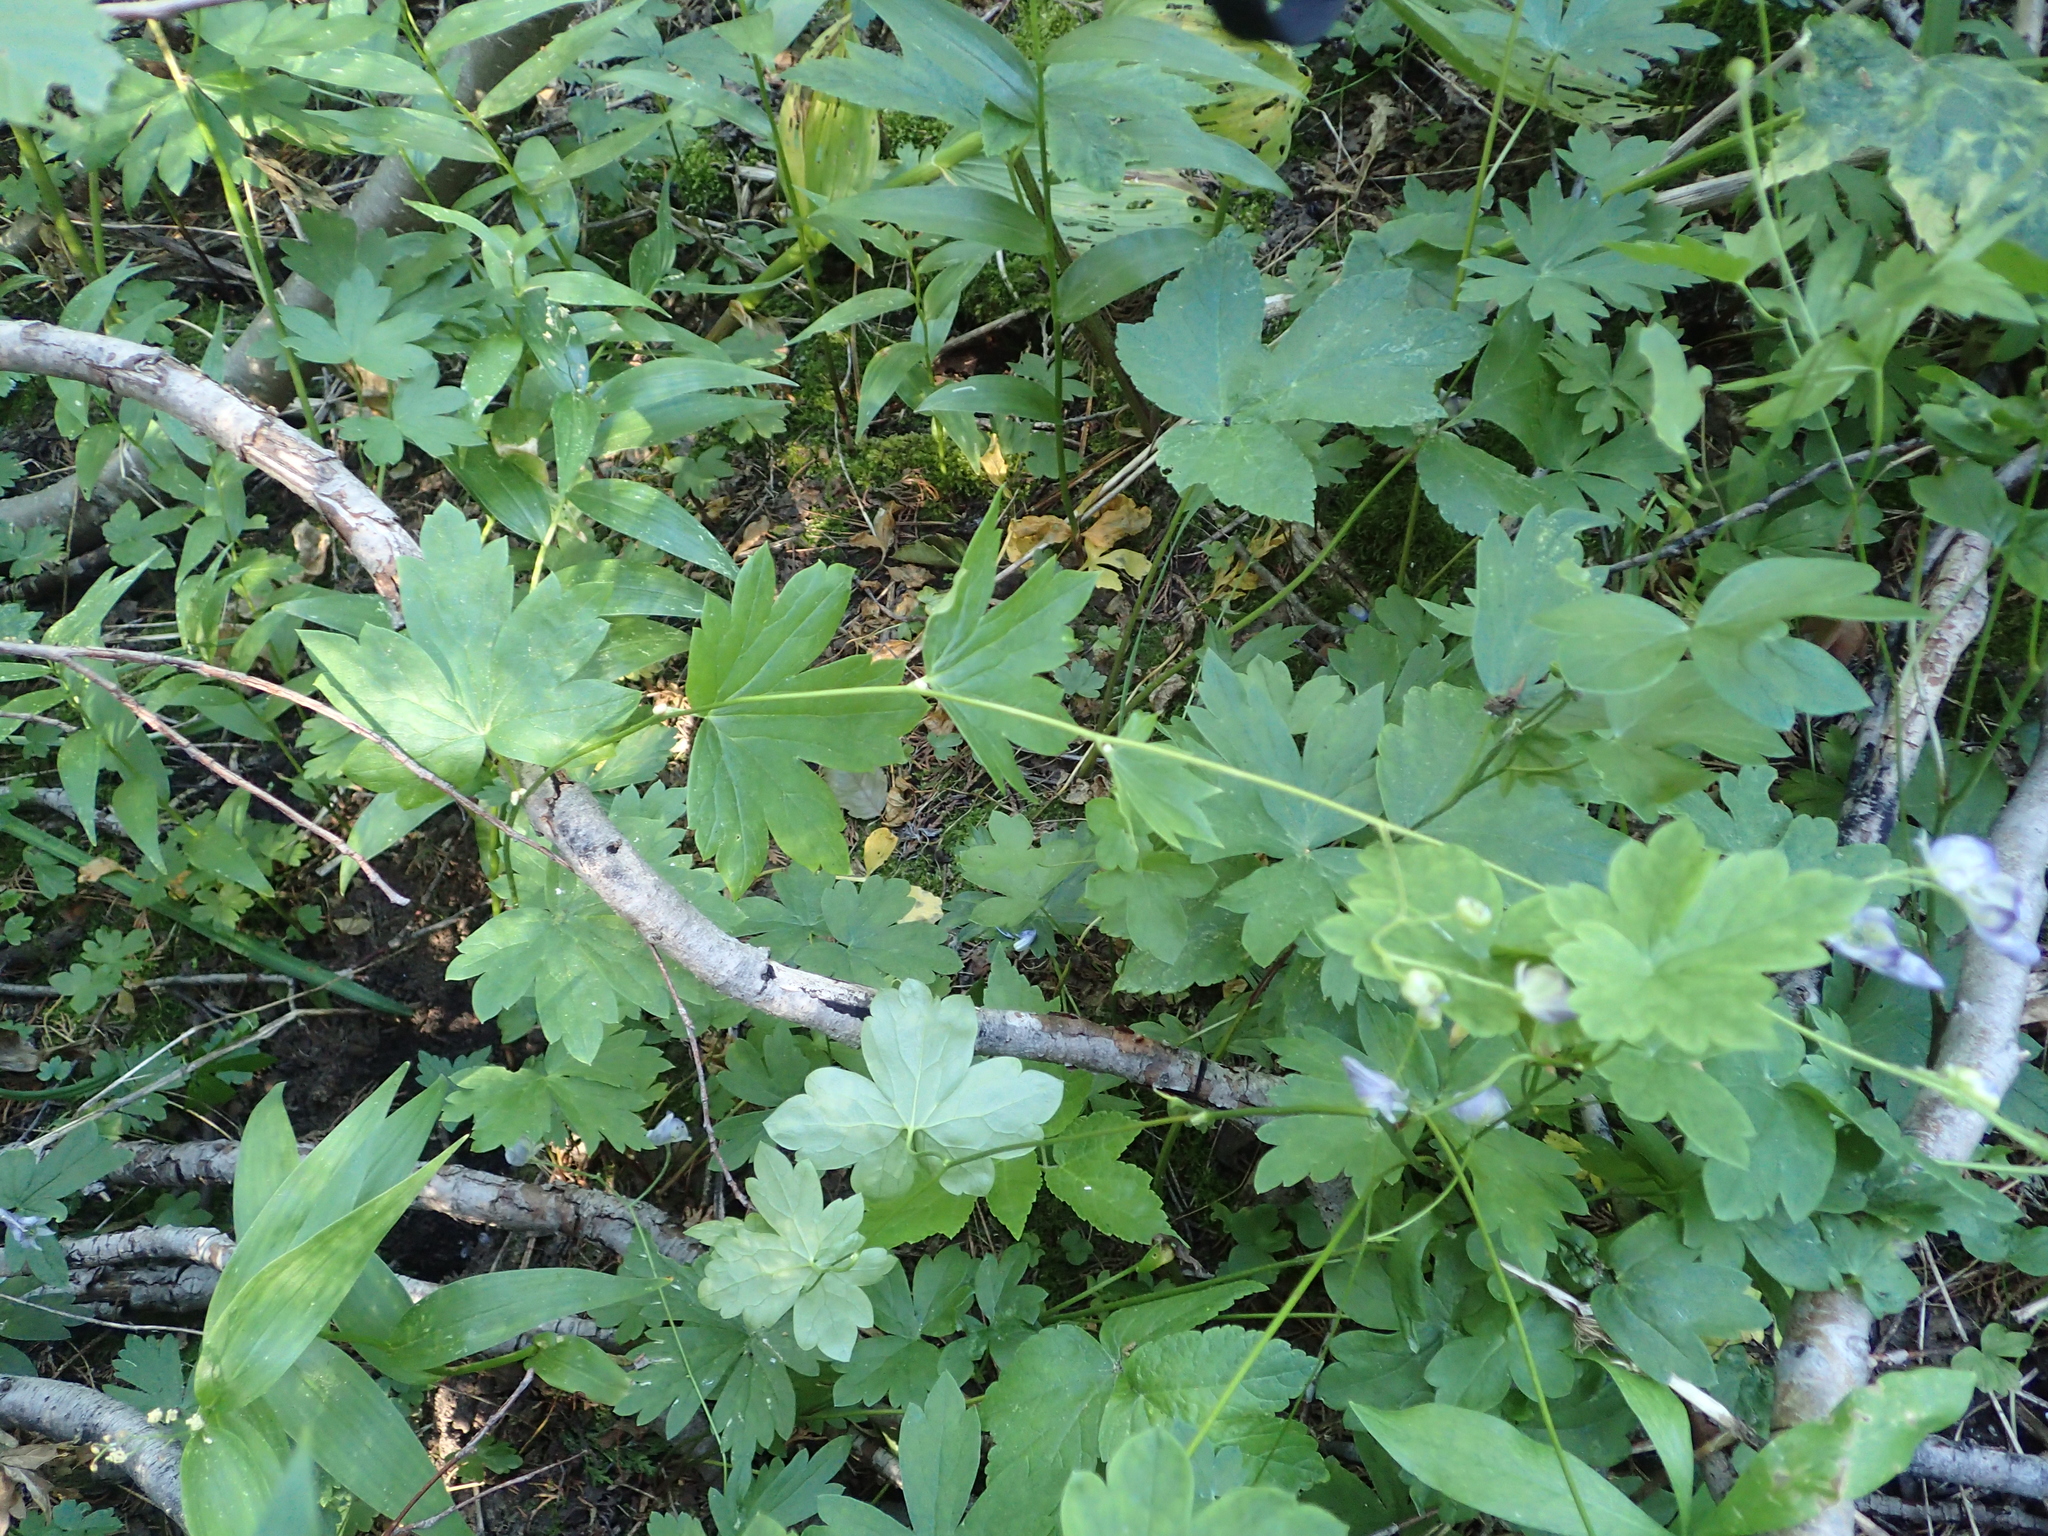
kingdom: Plantae
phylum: Tracheophyta
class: Magnoliopsida
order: Ranunculales
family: Ranunculaceae
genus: Aconitum
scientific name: Aconitum columbianum
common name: Columbia aconite
